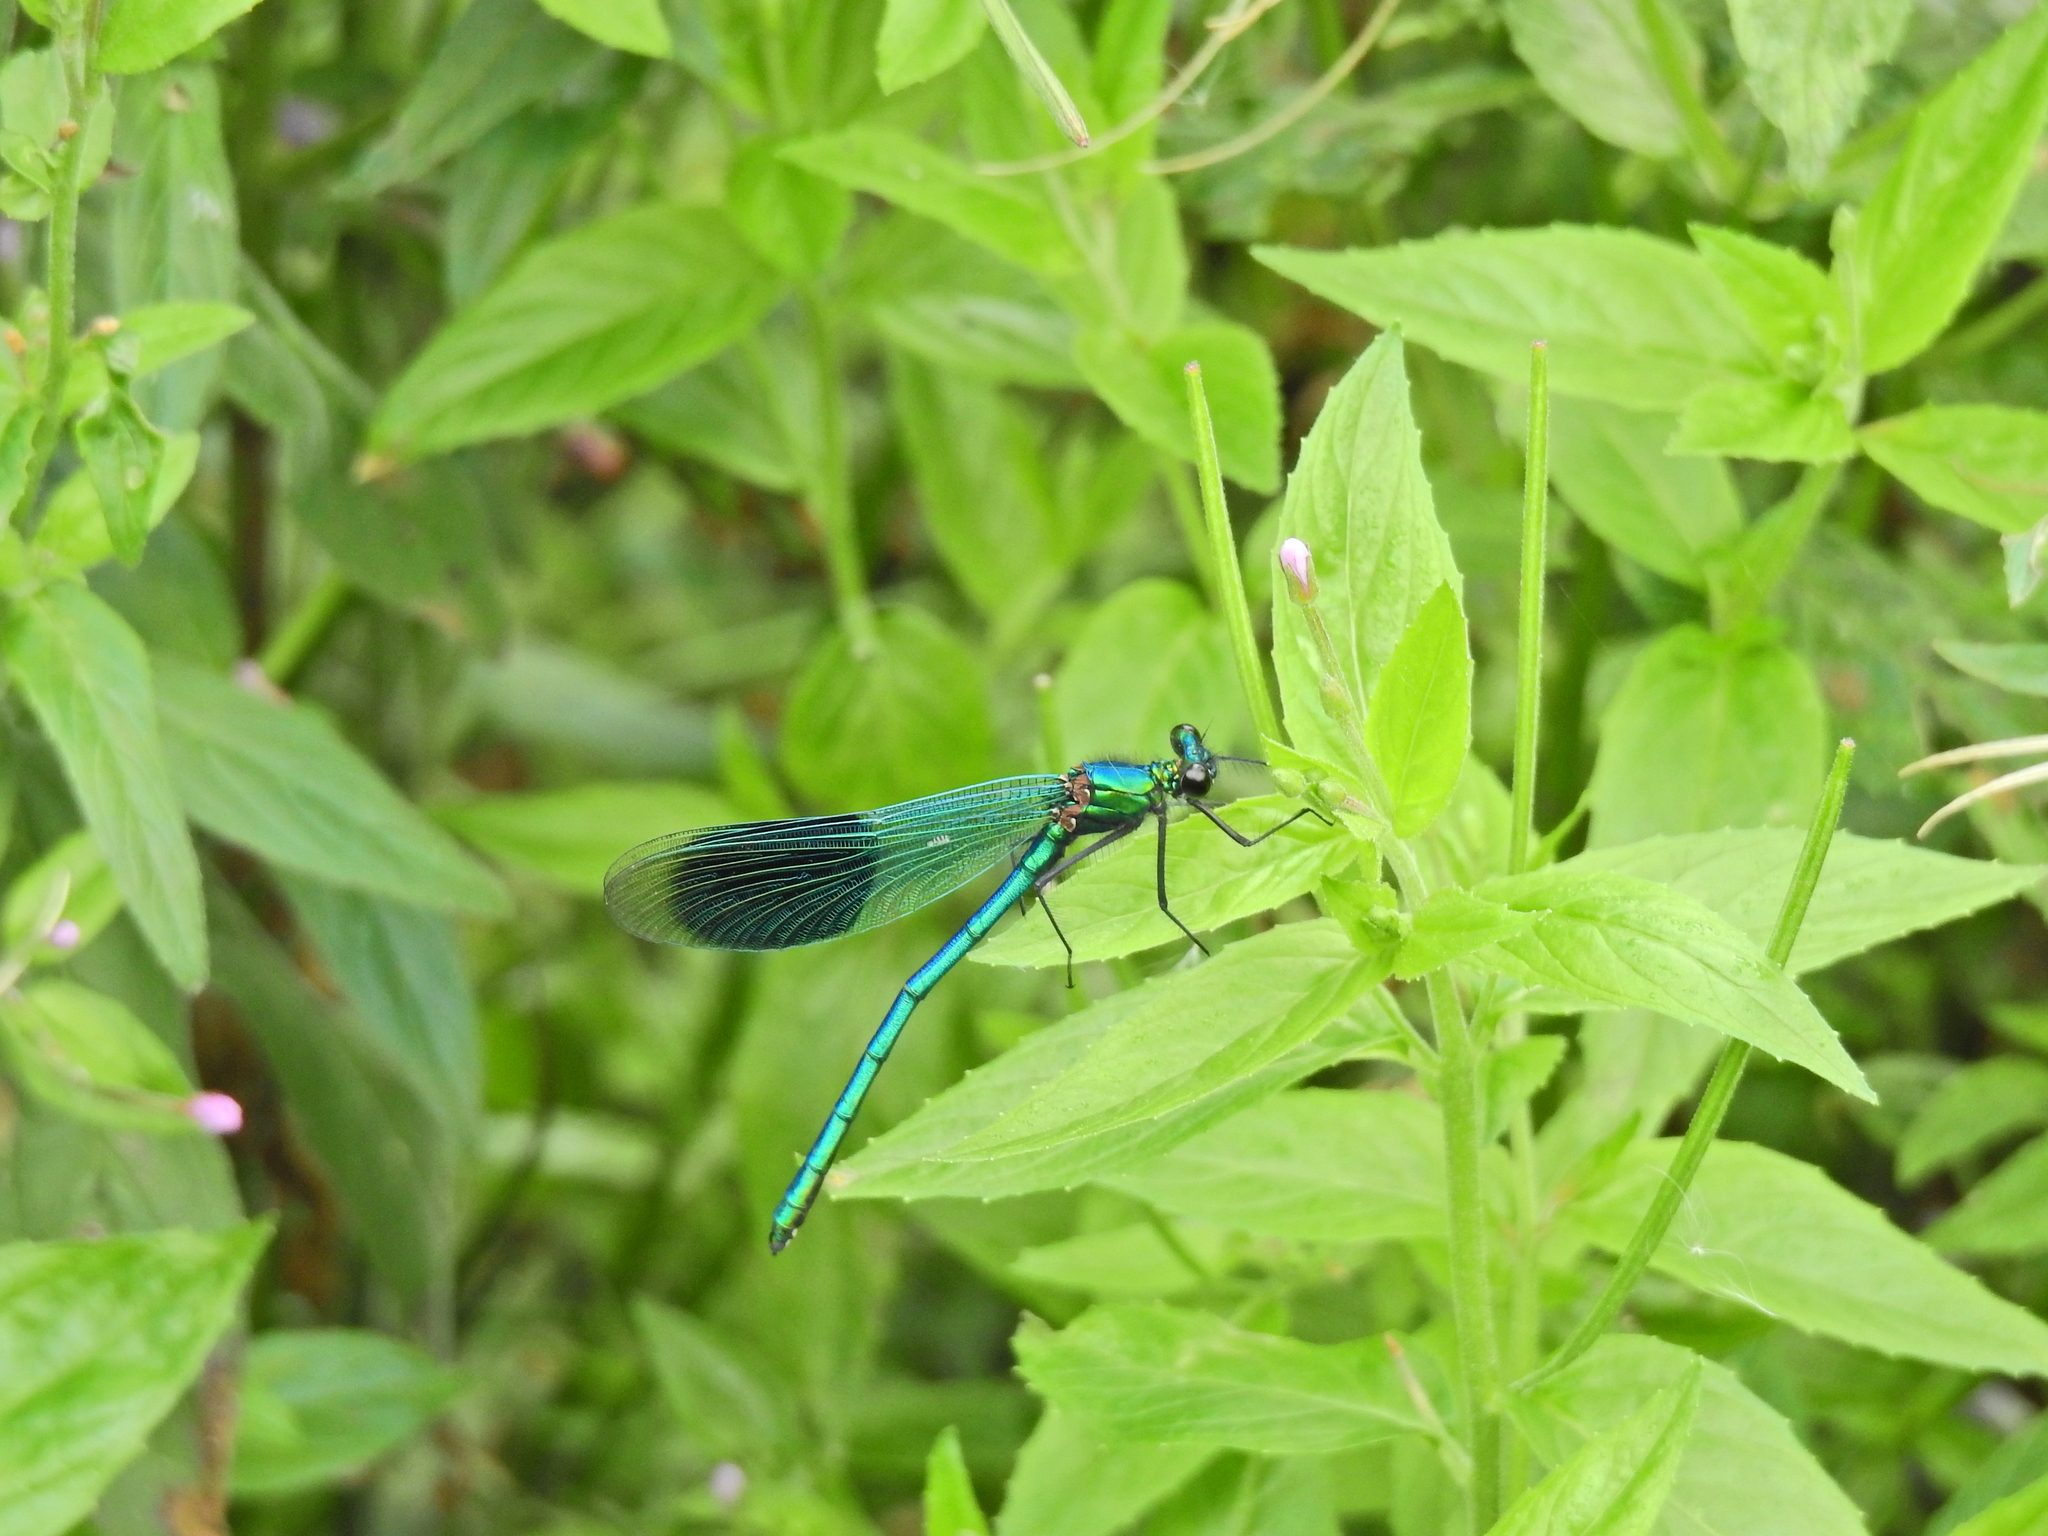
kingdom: Animalia
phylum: Arthropoda
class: Insecta
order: Odonata
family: Calopterygidae
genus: Calopteryx
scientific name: Calopteryx splendens
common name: Banded demoiselle
